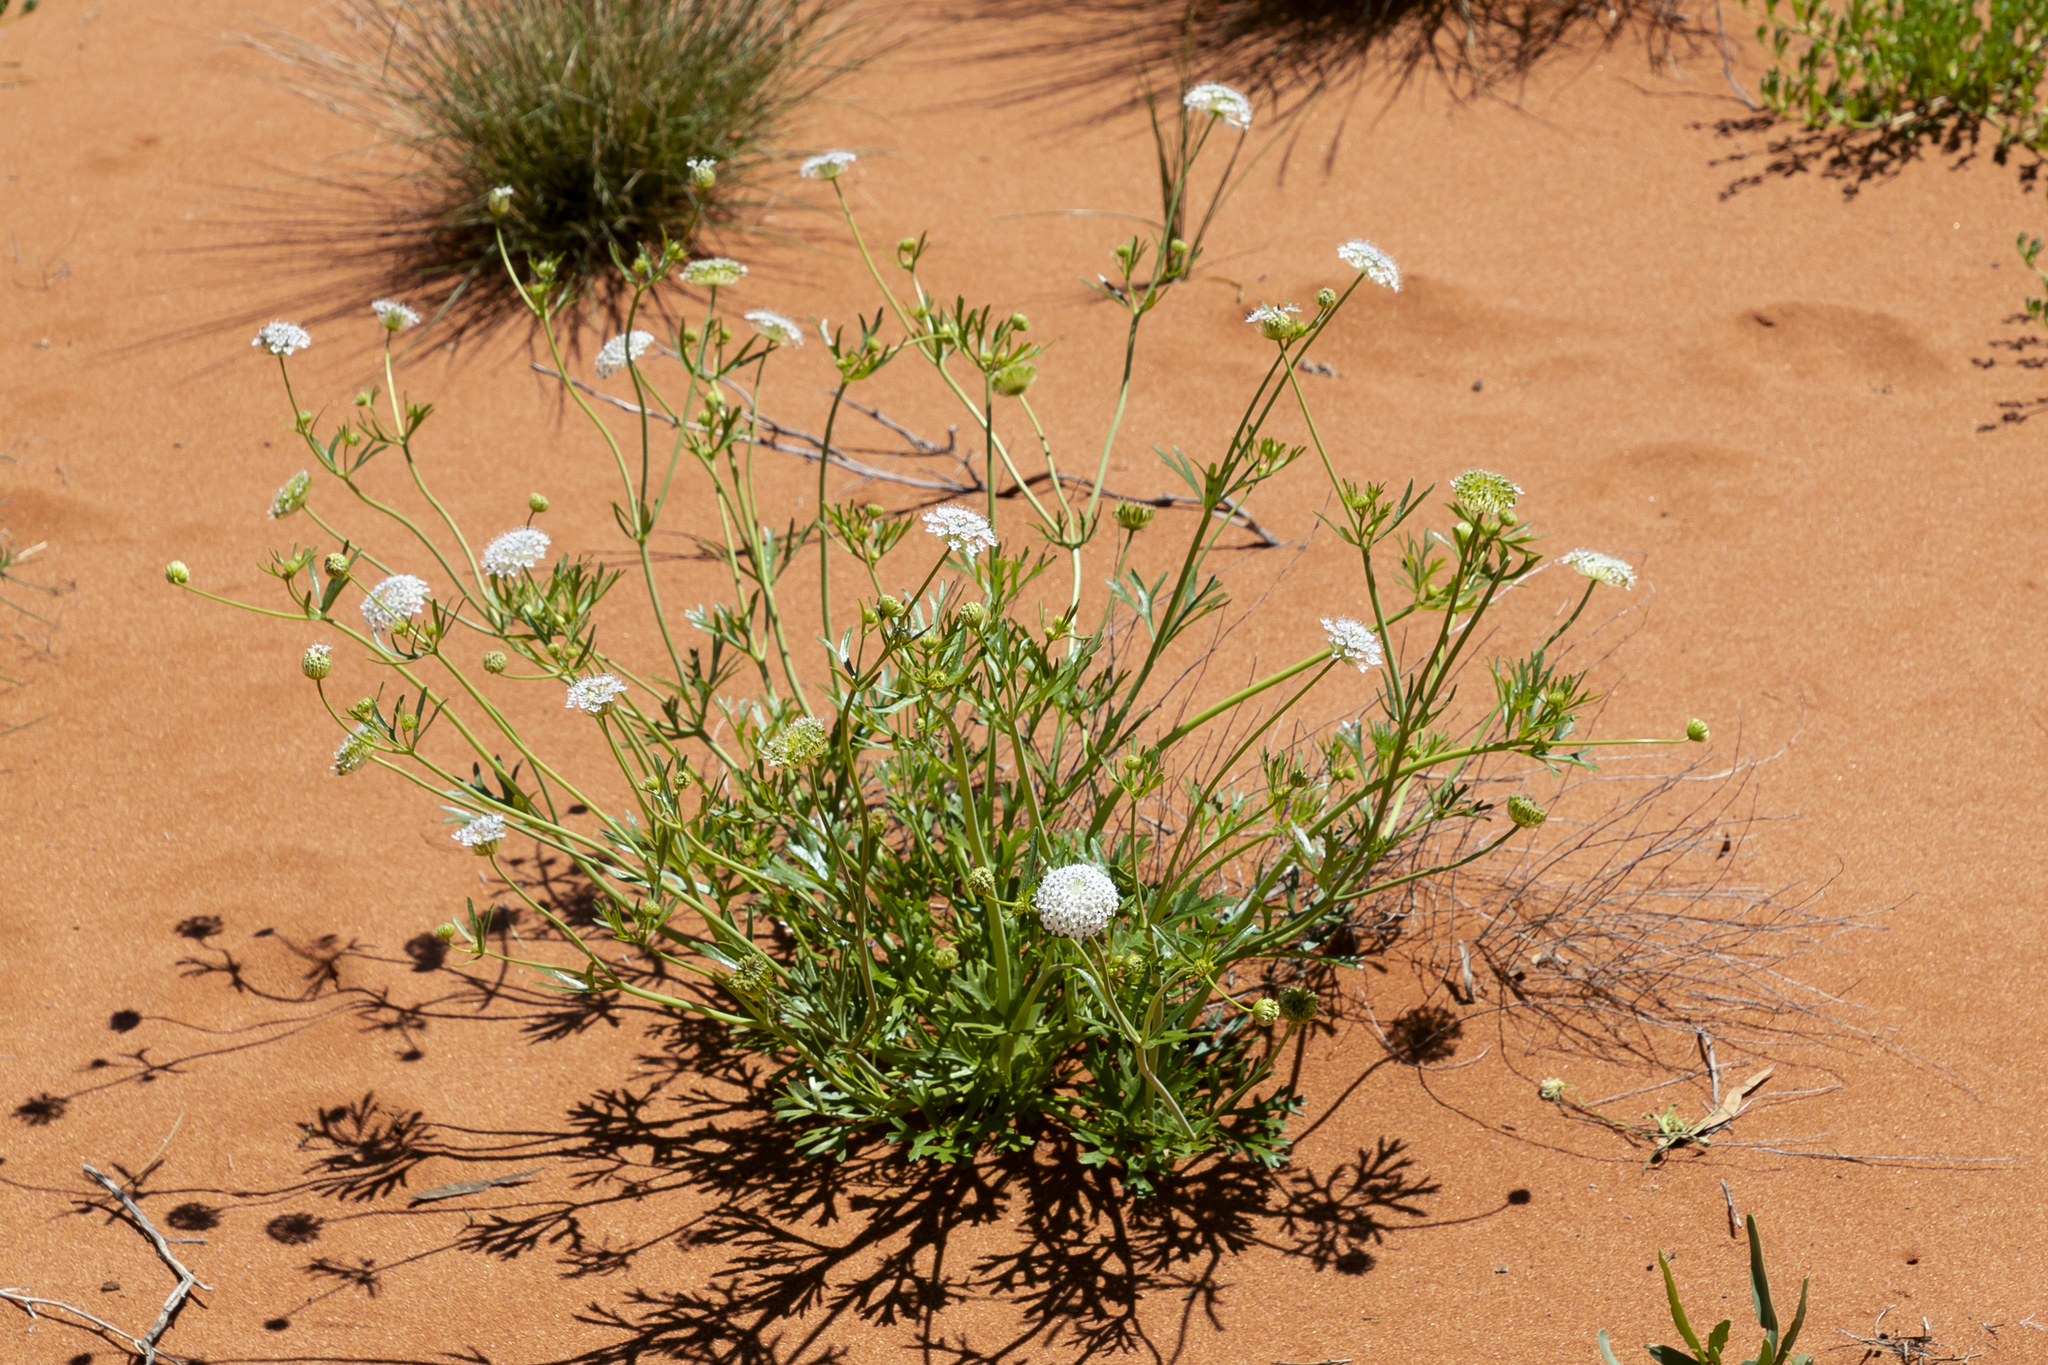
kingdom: Plantae
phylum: Tracheophyta
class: Magnoliopsida
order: Apiales
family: Araliaceae
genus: Trachymene
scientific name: Trachymene glaucifolia
